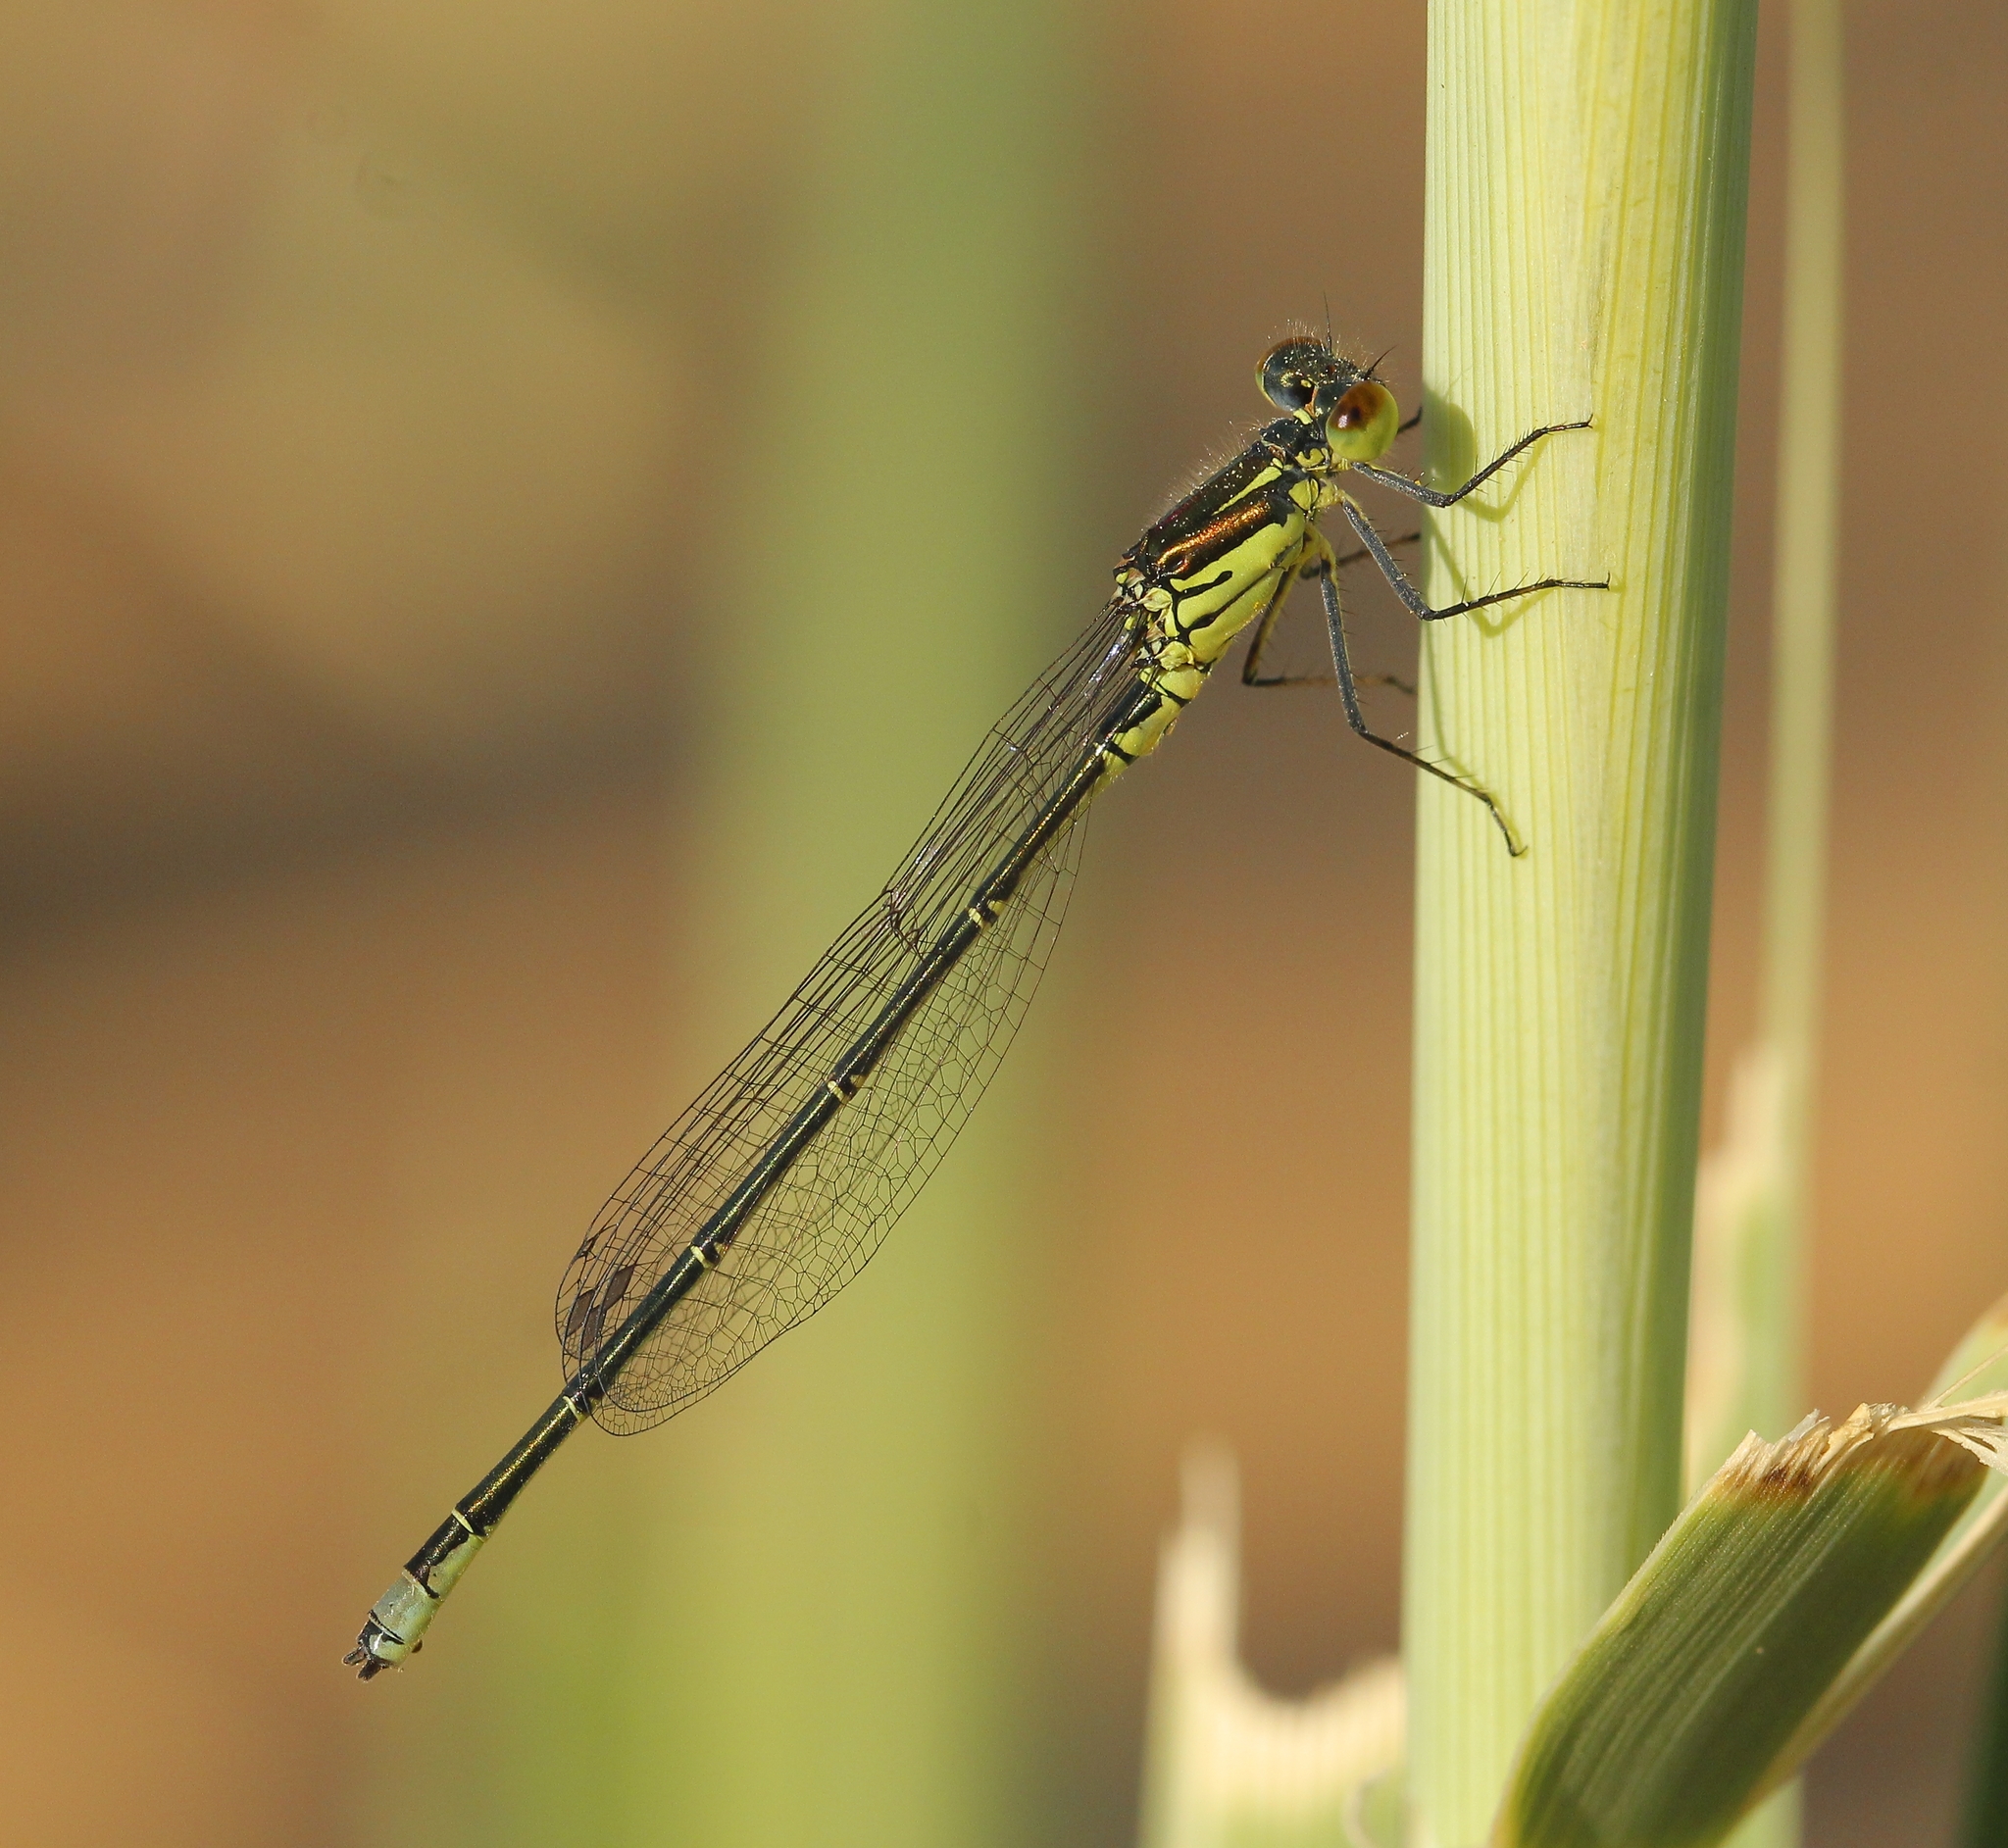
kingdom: Animalia
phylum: Arthropoda
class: Insecta
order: Odonata
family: Coenagrionidae
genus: Erythromma
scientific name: Erythromma viridulum
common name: Small red-eyed damselfly
